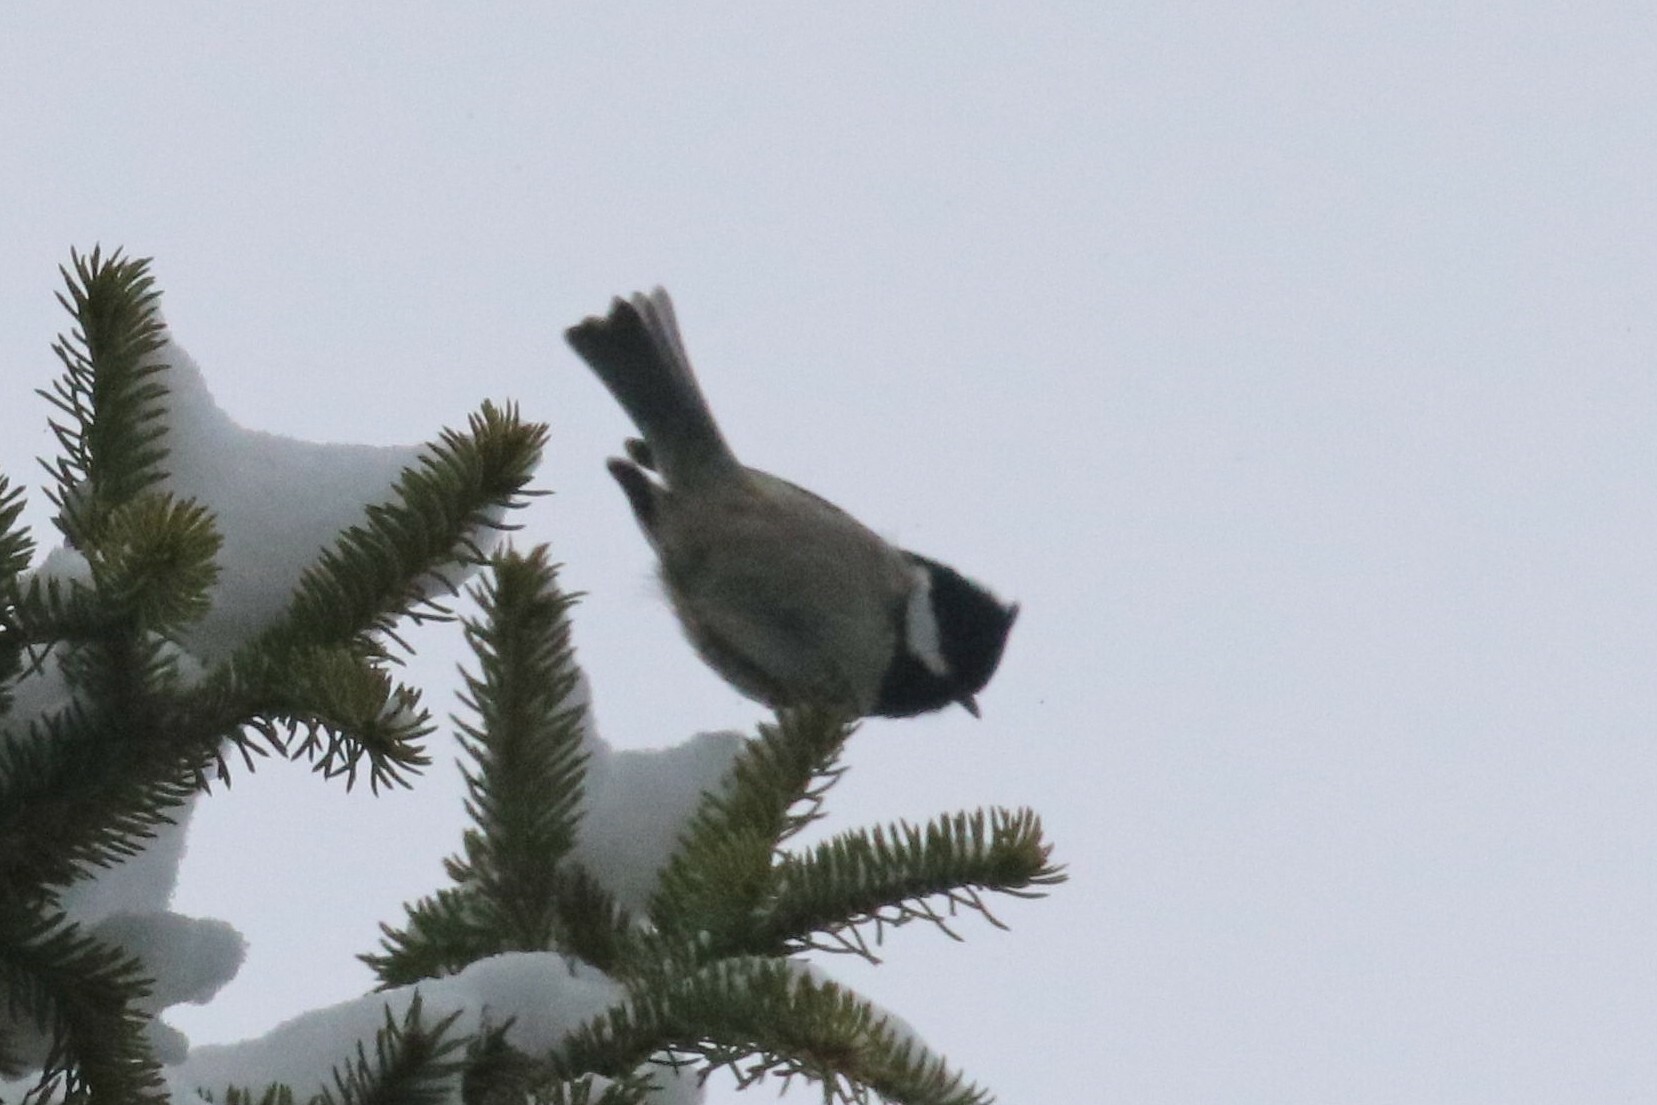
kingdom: Animalia
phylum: Chordata
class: Aves
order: Passeriformes
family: Paridae
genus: Periparus
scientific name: Periparus ater
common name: Coal tit
